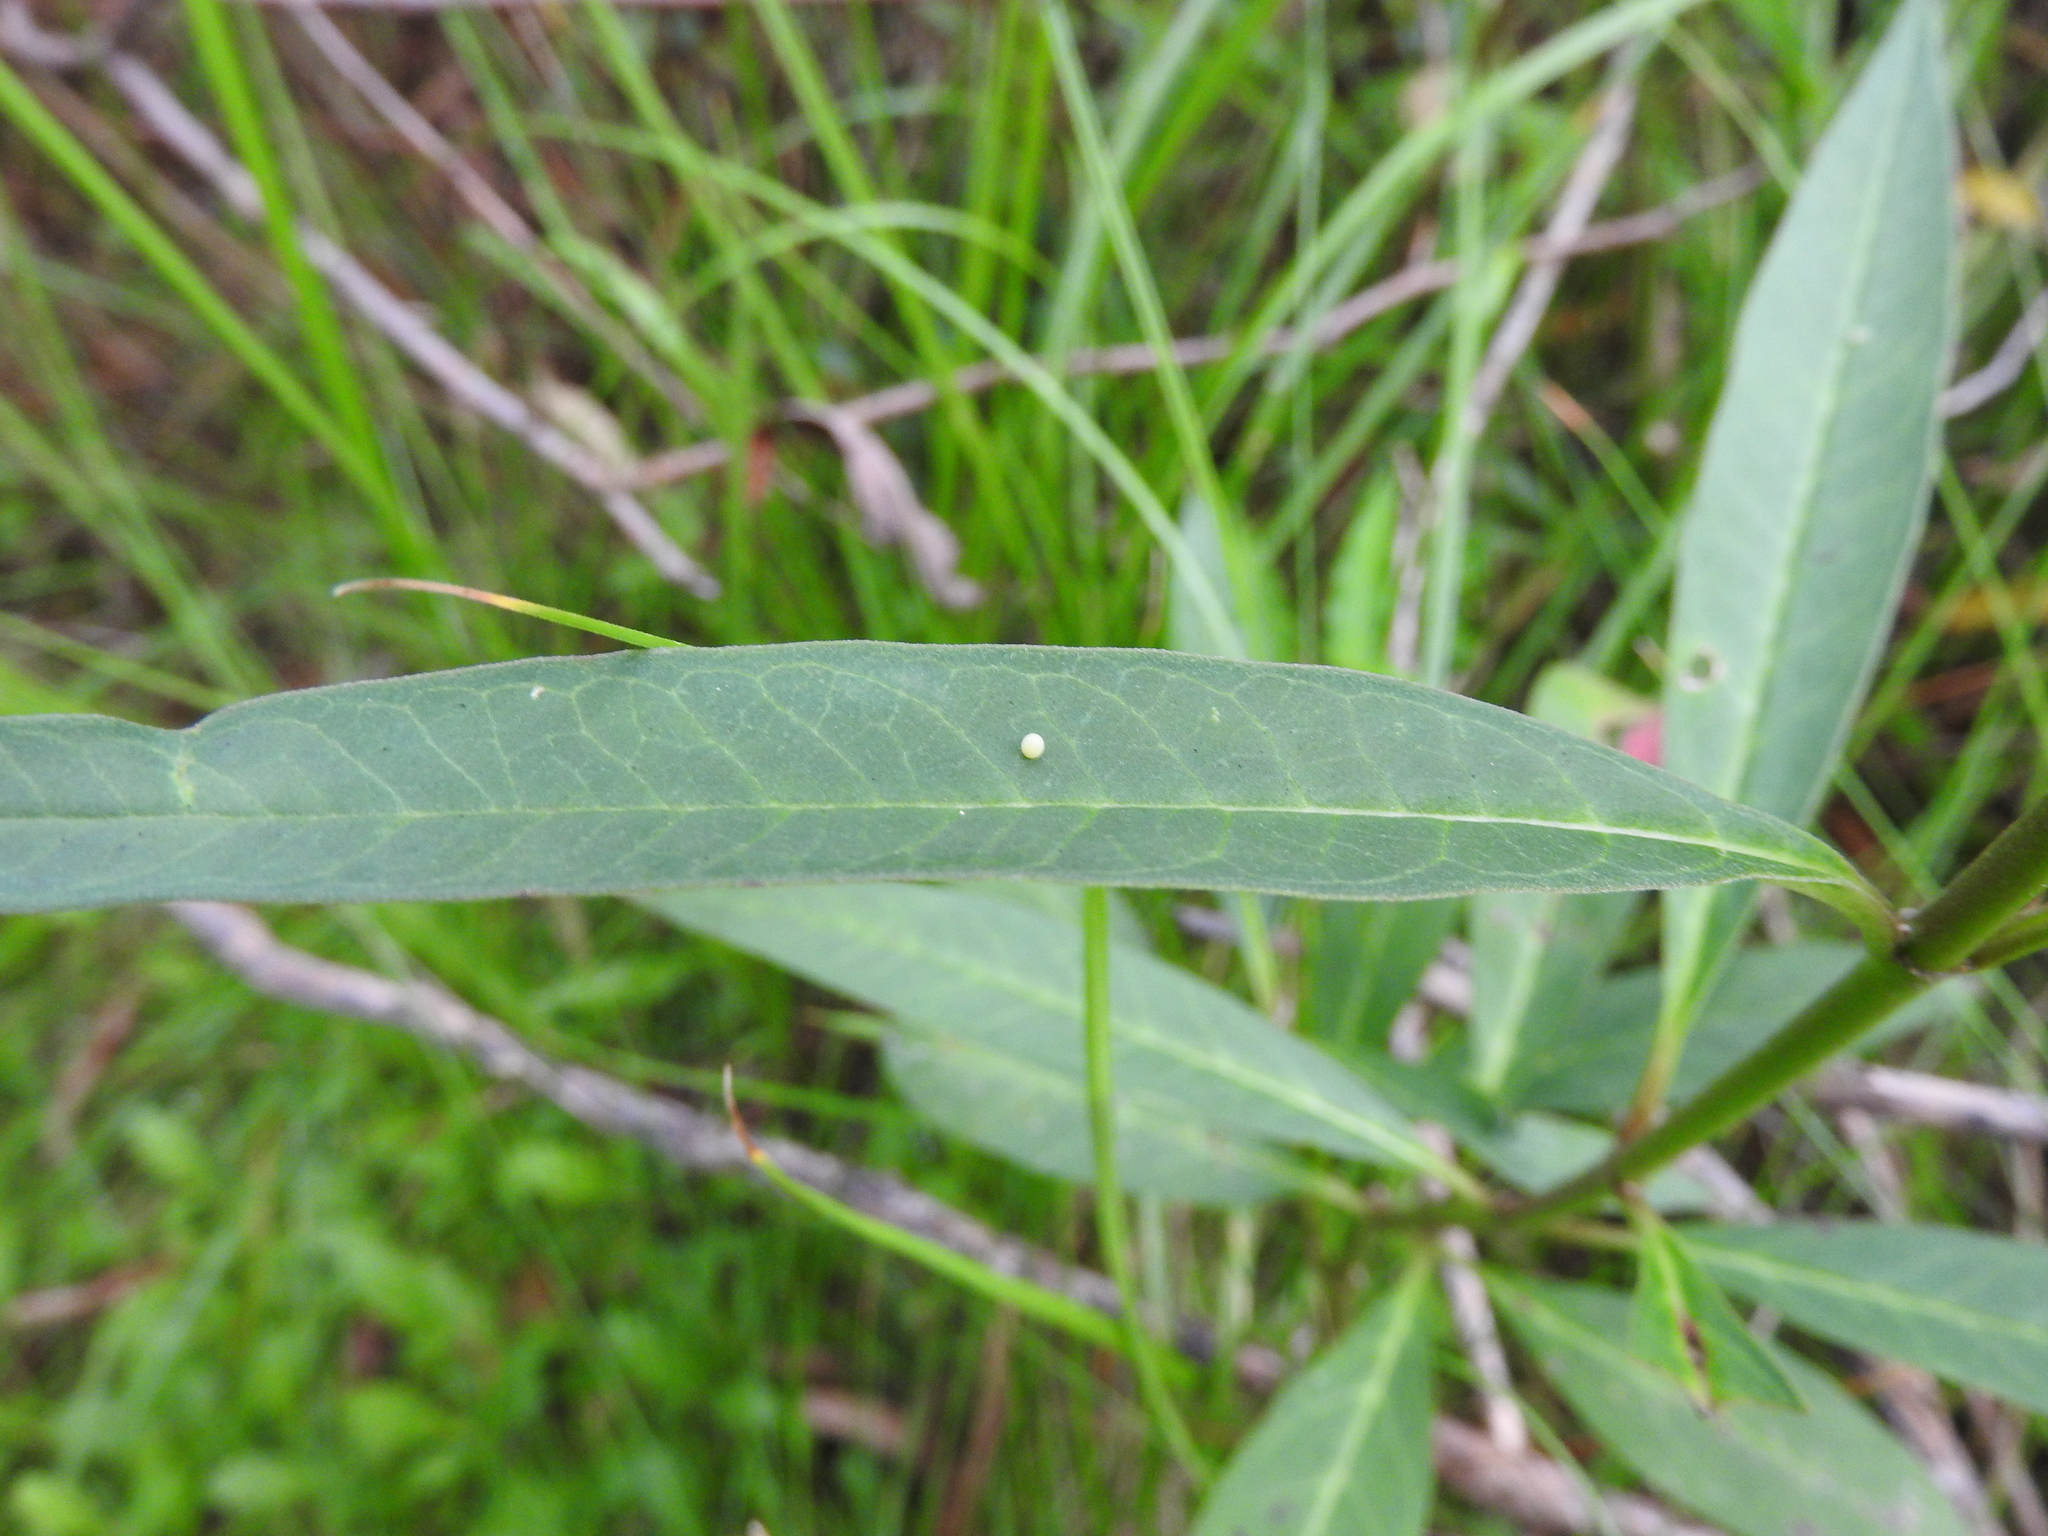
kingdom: Animalia
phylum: Arthropoda
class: Insecta
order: Lepidoptera
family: Nymphalidae
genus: Danaus
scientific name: Danaus plexippus
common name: Monarch
